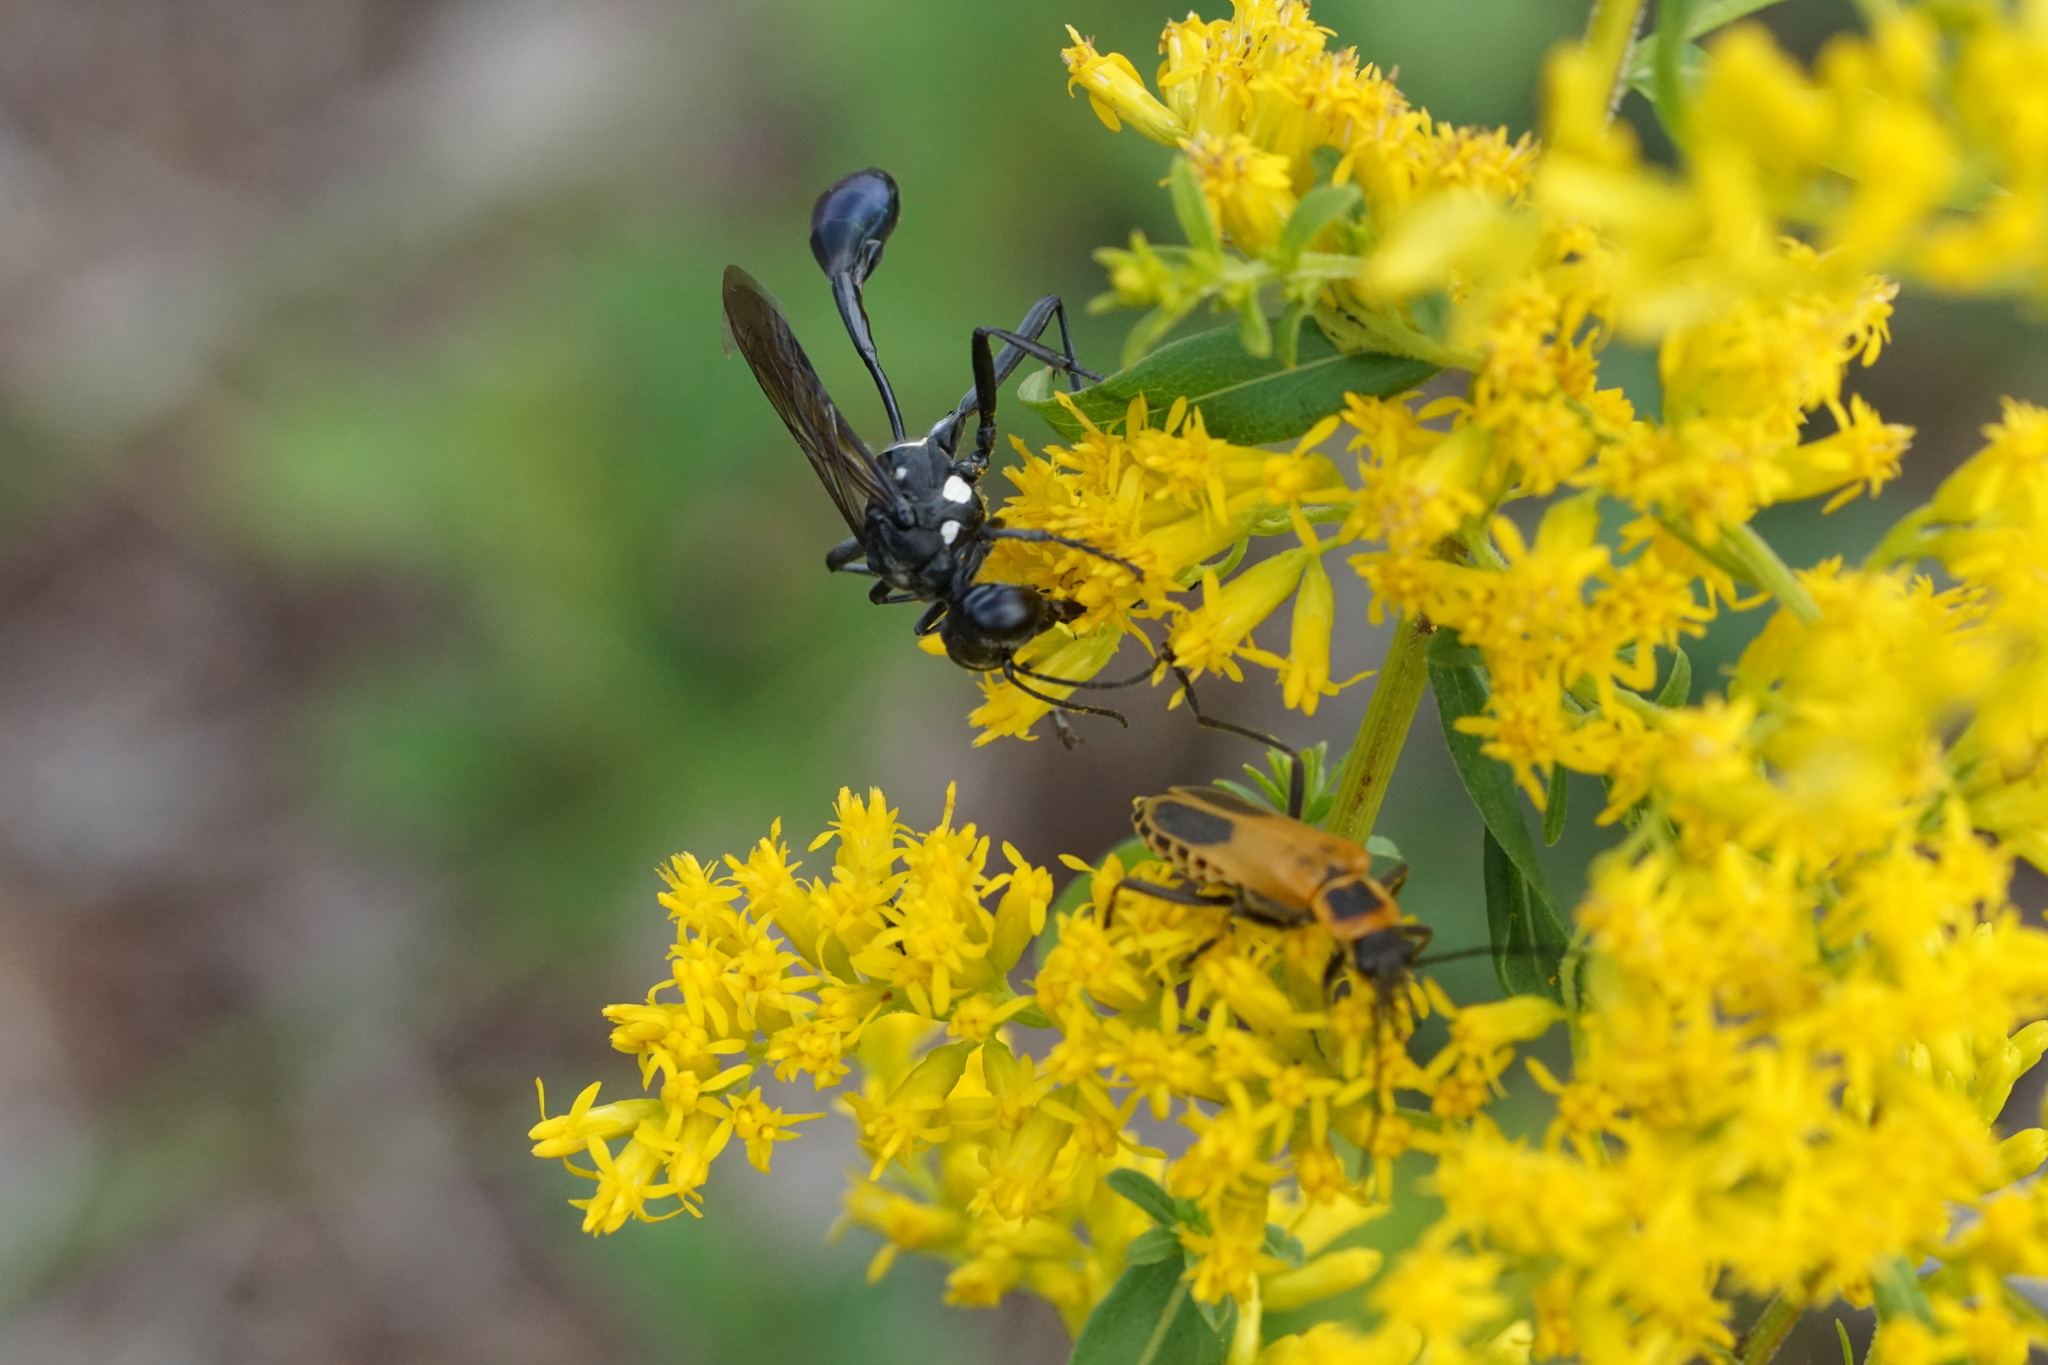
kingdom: Animalia
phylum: Arthropoda
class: Insecta
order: Hymenoptera
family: Sphecidae
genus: Eremnophila
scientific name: Eremnophila aureonotata
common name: Gold-marked thread-waisted wasp
